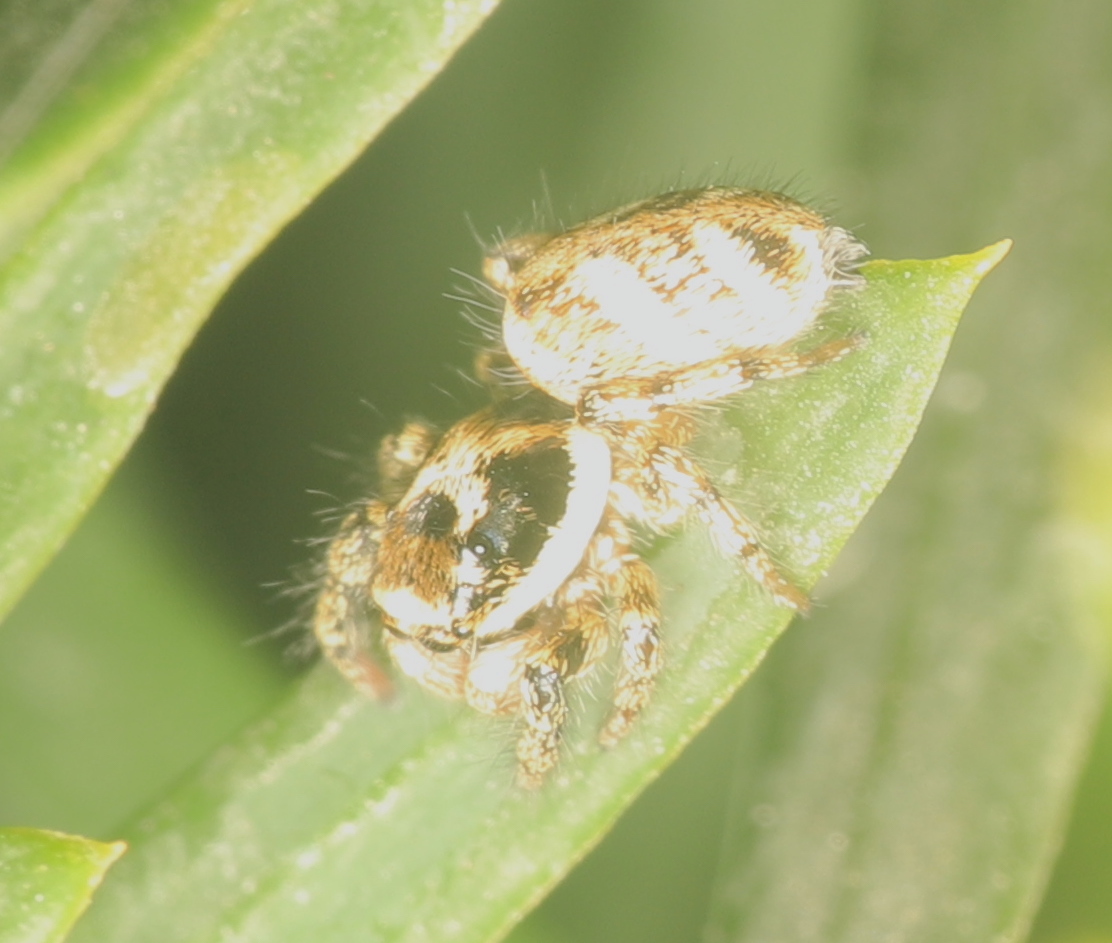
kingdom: Animalia
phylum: Arthropoda
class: Arachnida
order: Araneae
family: Salticidae
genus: Salticus
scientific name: Salticus scenicus
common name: Zebra jumper
